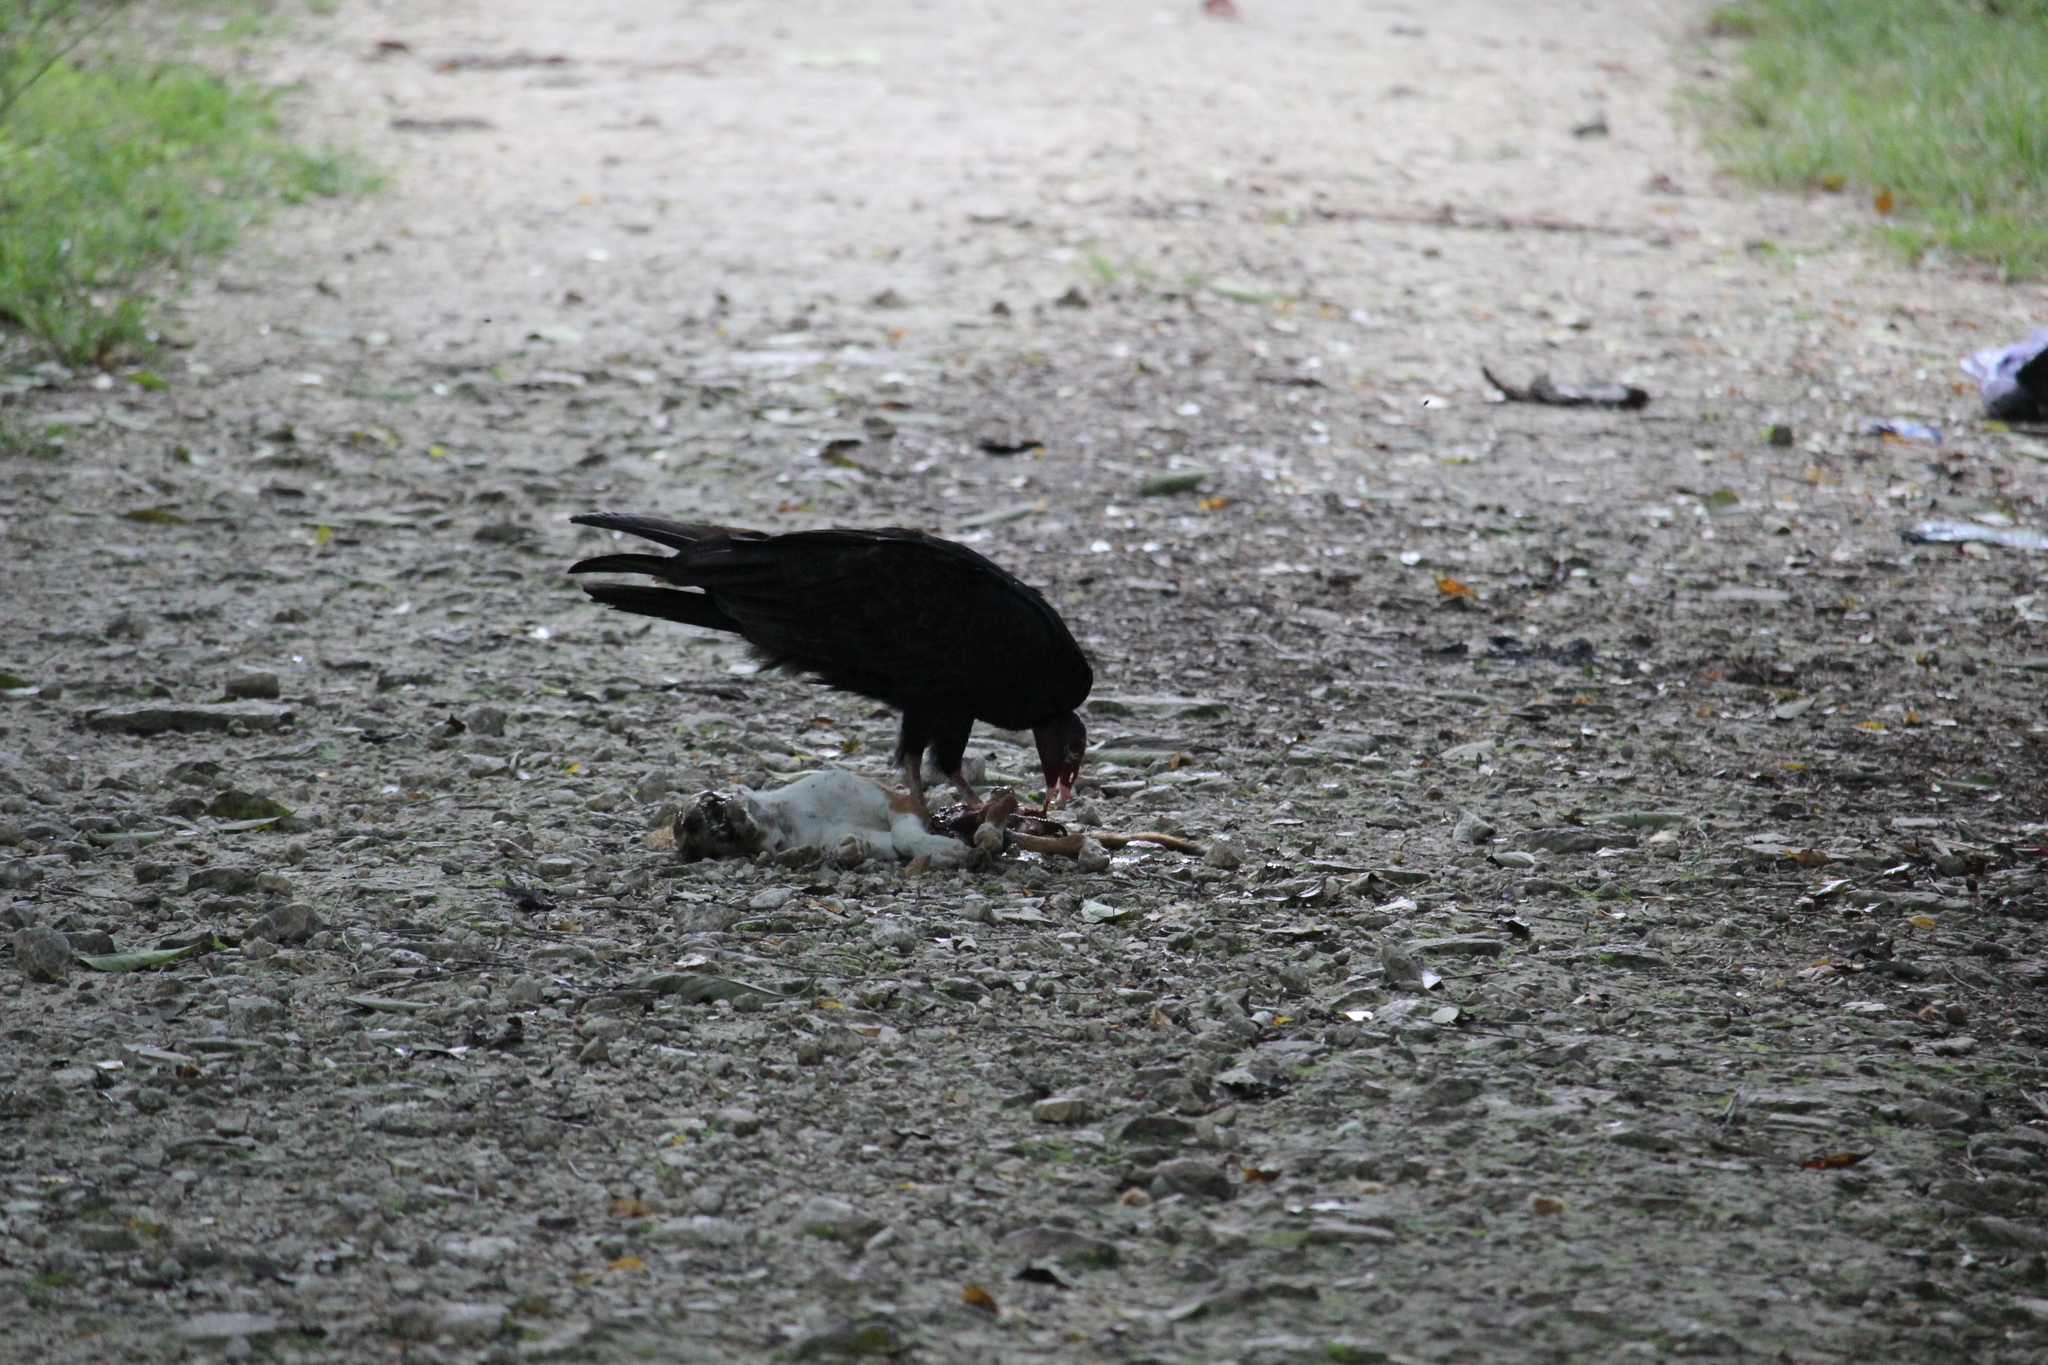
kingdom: Animalia
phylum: Chordata
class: Aves
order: Accipitriformes
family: Cathartidae
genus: Cathartes
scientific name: Cathartes aura
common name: Turkey vulture
